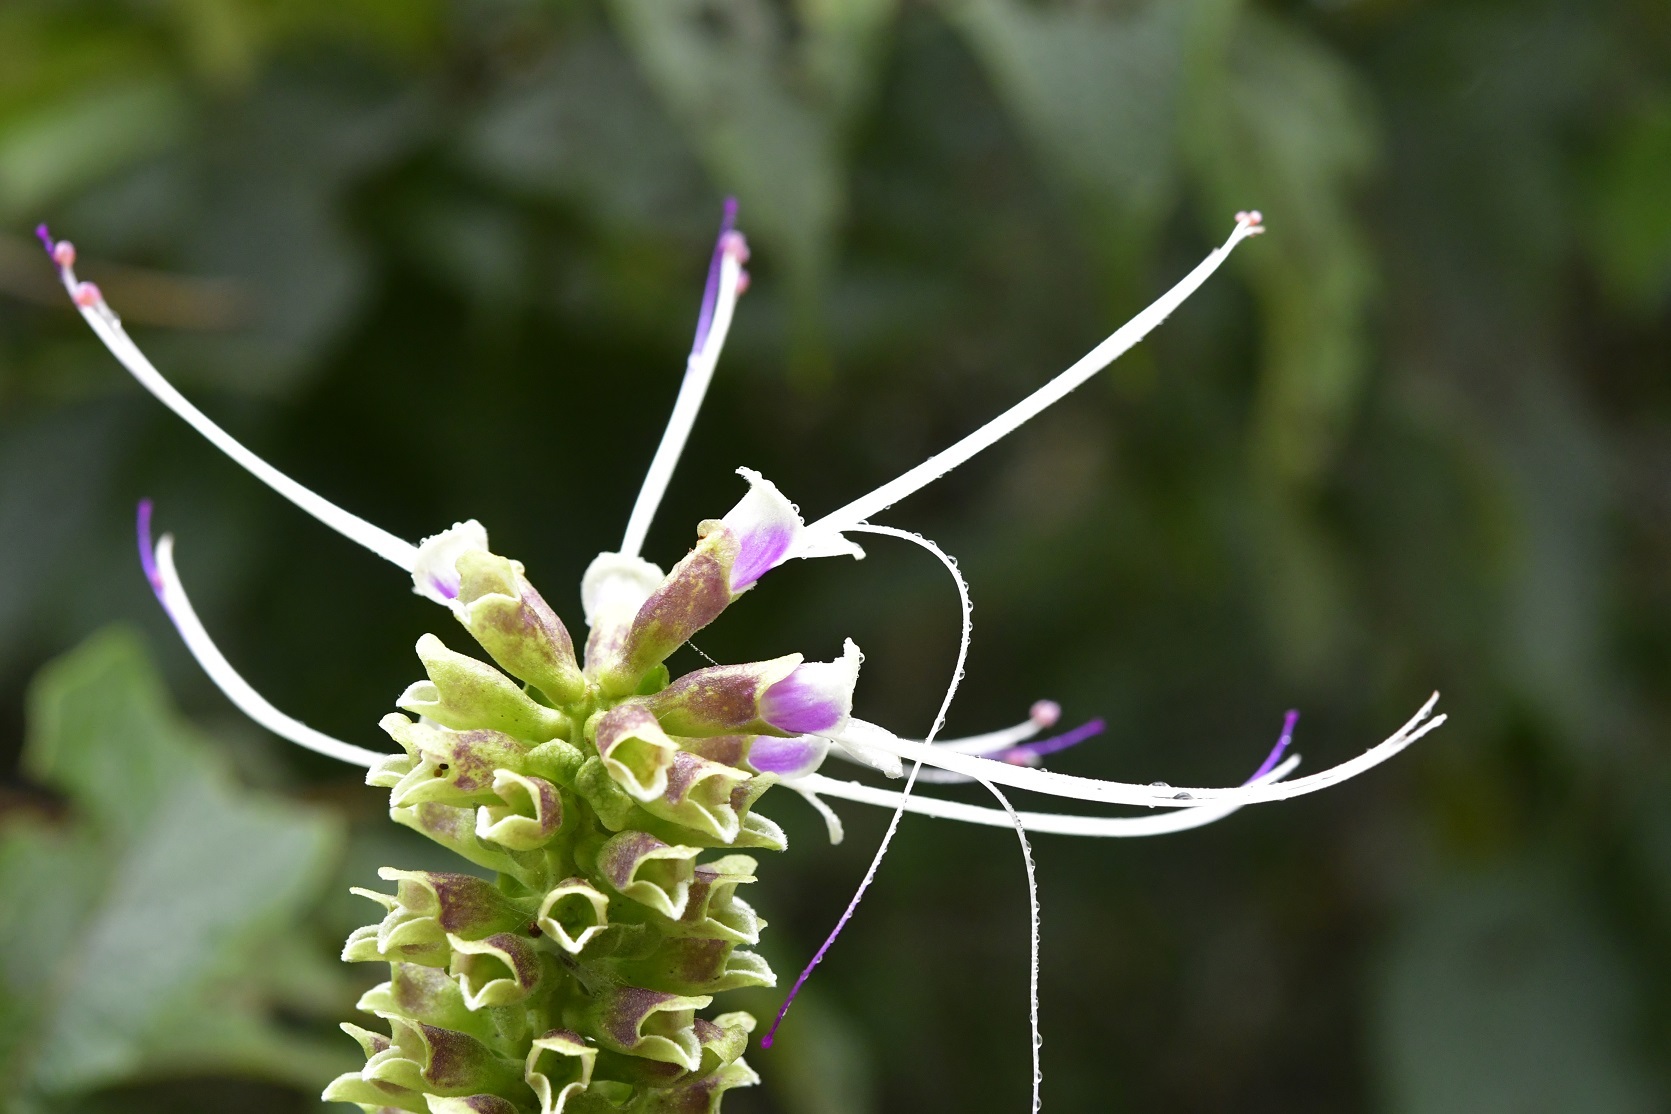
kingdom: Plantae
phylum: Tracheophyta
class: Magnoliopsida
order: Lamiales
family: Lamiaceae
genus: Catoferia
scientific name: Catoferia chiapensis
